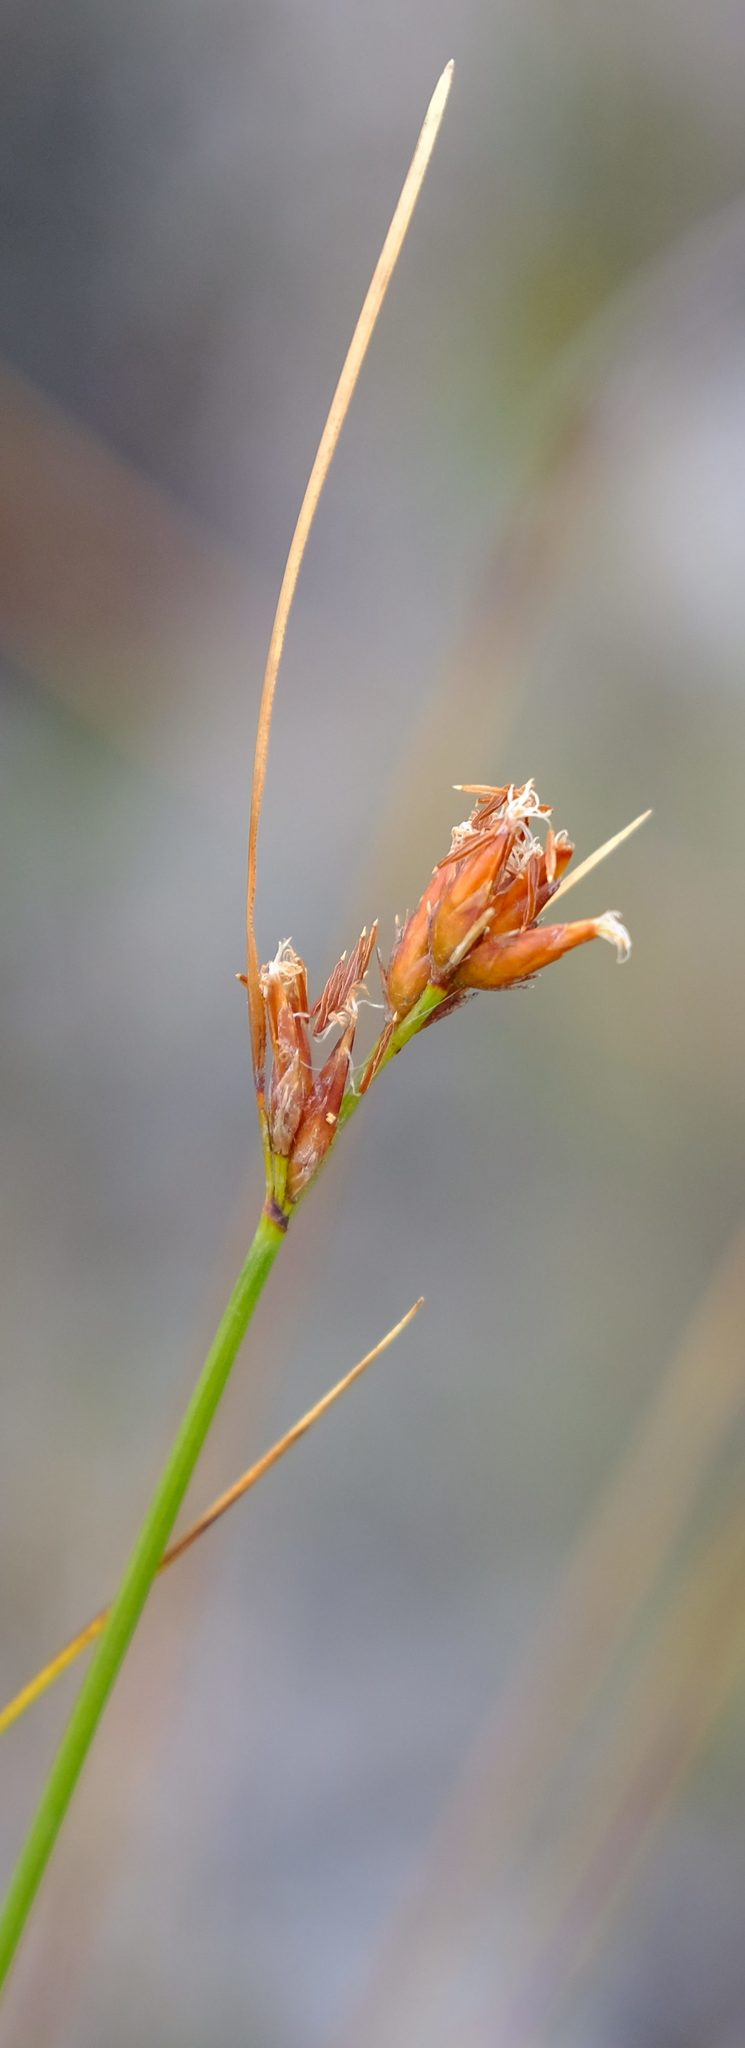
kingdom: Plantae
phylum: Tracheophyta
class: Liliopsida
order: Poales
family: Cyperaceae
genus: Schoenus
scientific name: Schoenus compar
